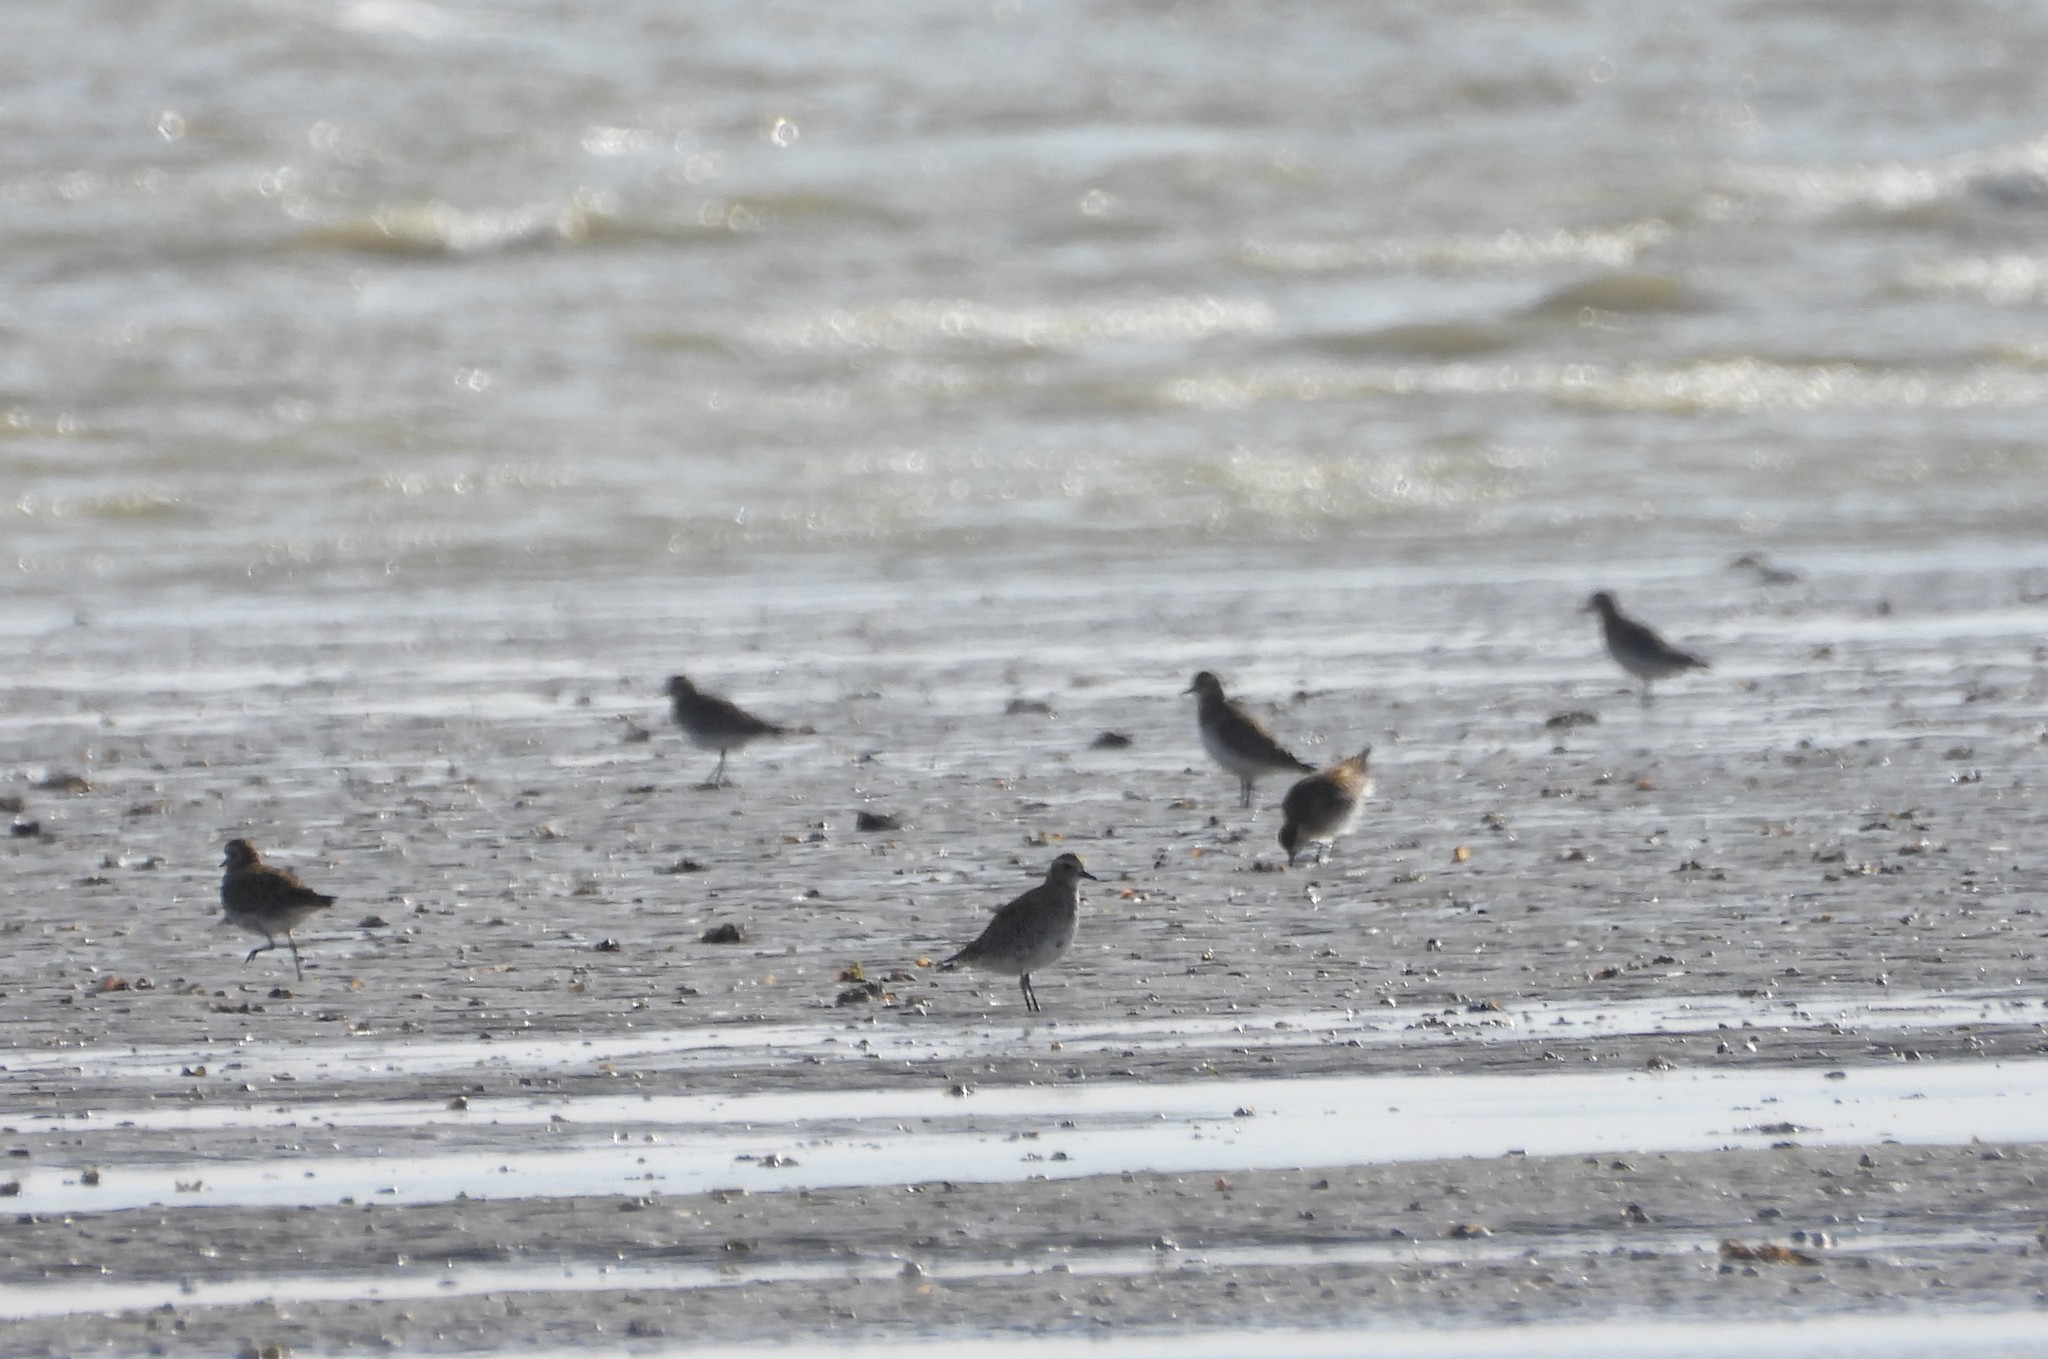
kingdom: Animalia
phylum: Chordata
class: Aves
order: Charadriiformes
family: Charadriidae
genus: Pluvialis
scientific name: Pluvialis apricaria
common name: European golden plover
